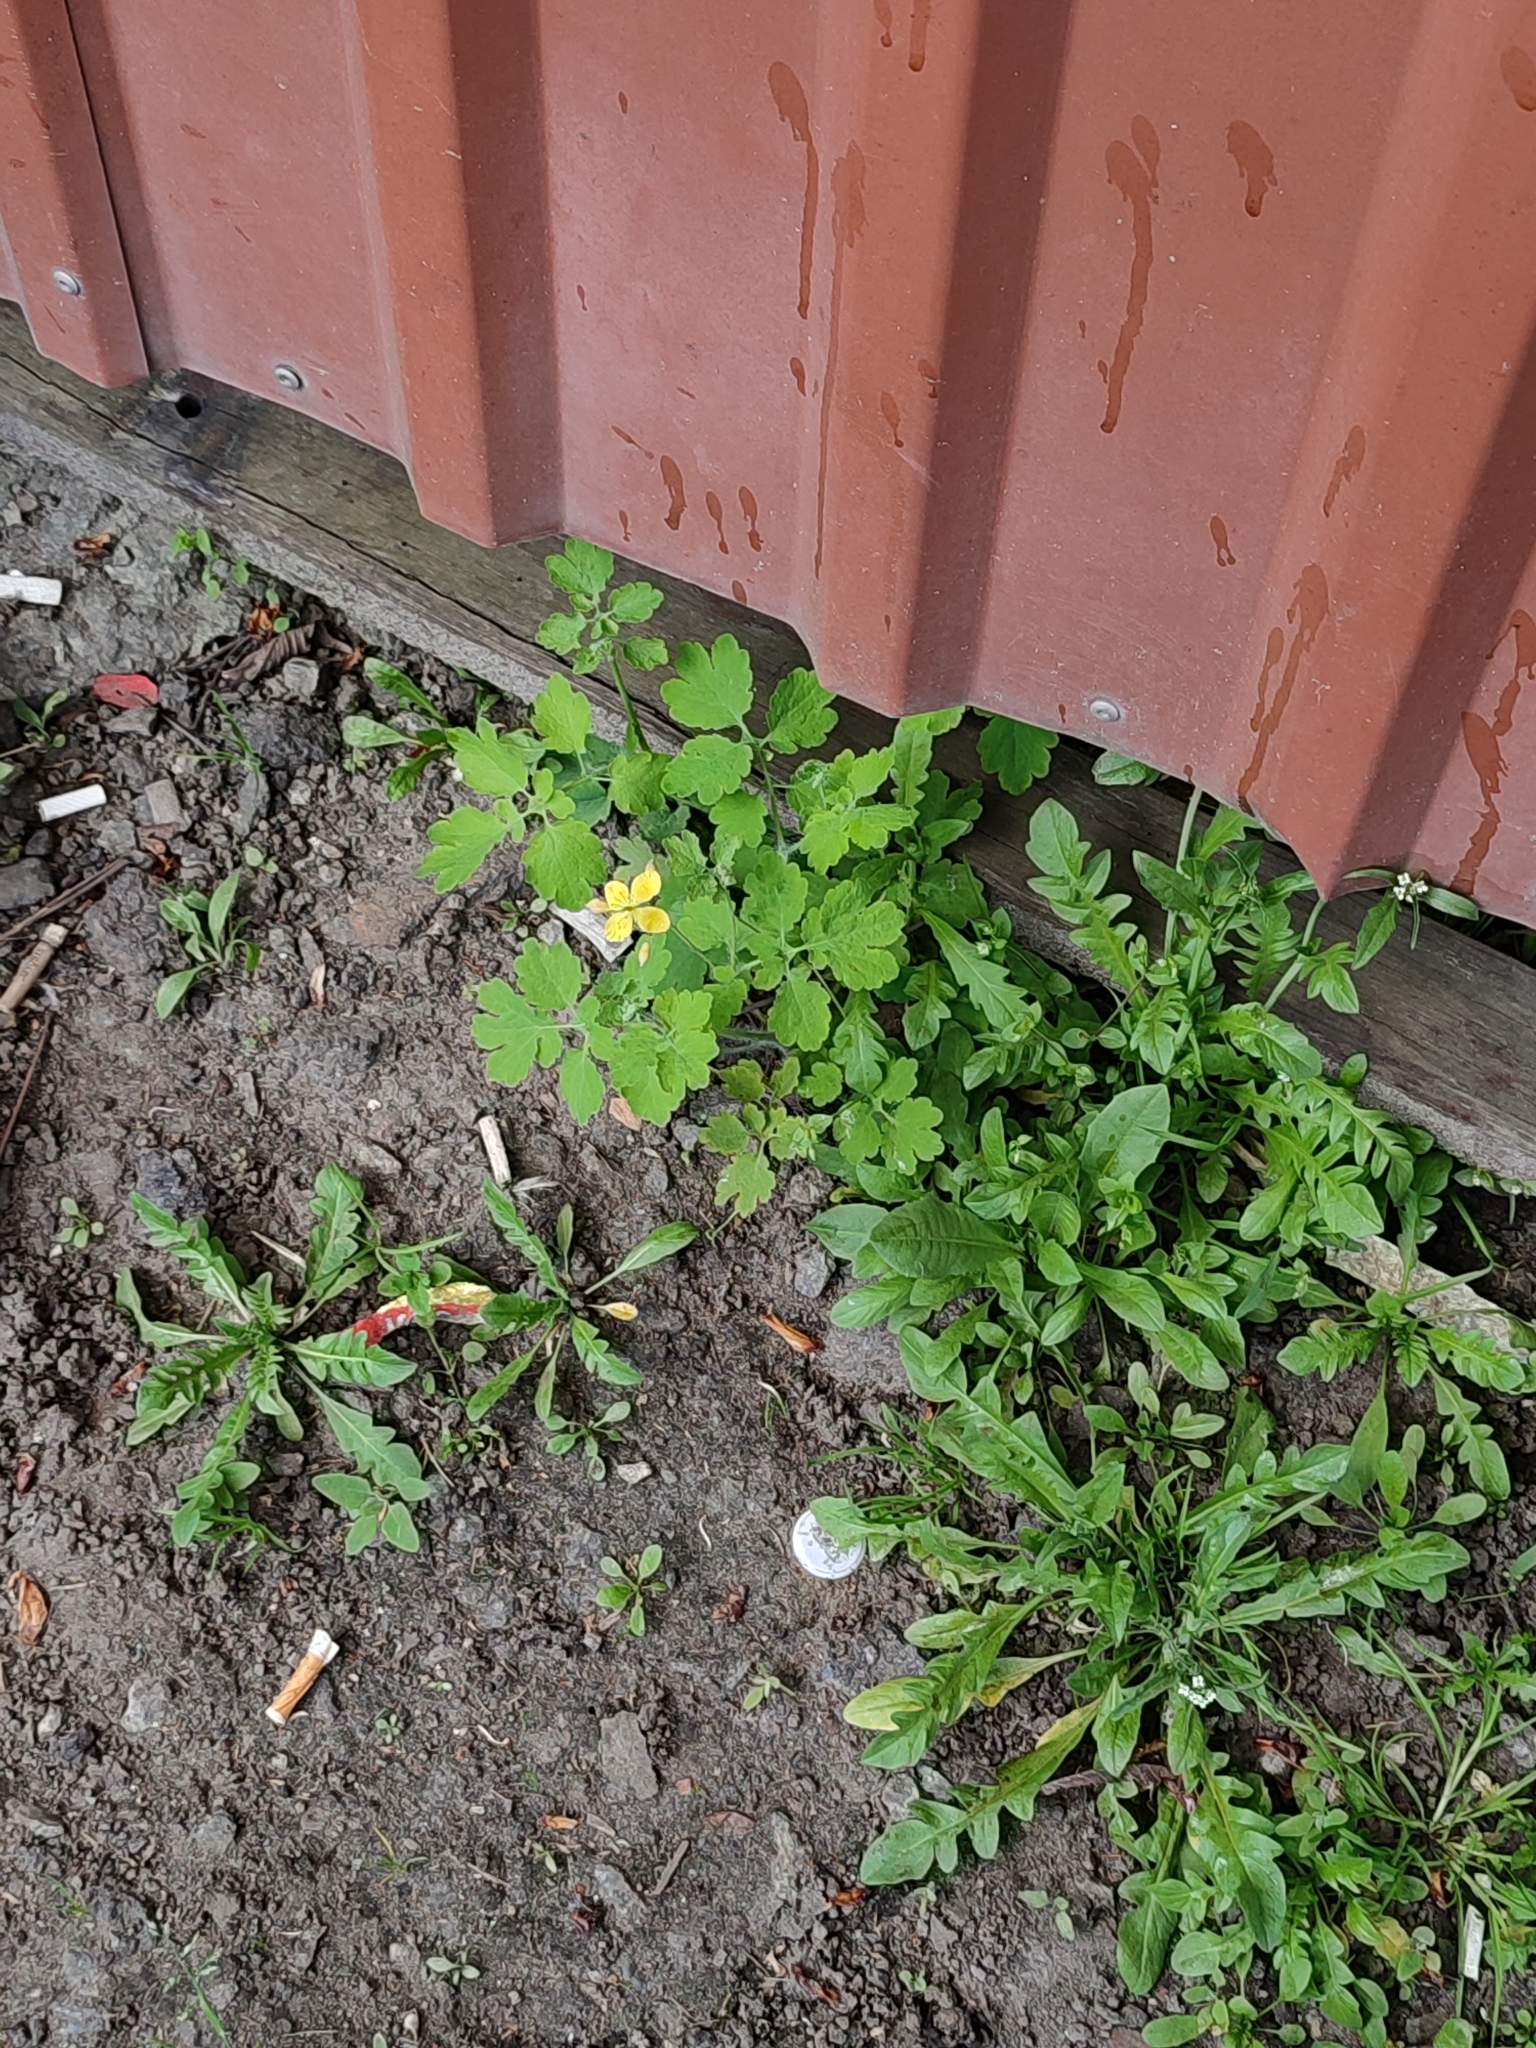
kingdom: Plantae
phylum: Tracheophyta
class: Magnoliopsida
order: Ranunculales
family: Papaveraceae
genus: Chelidonium
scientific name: Chelidonium majus
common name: Greater celandine
